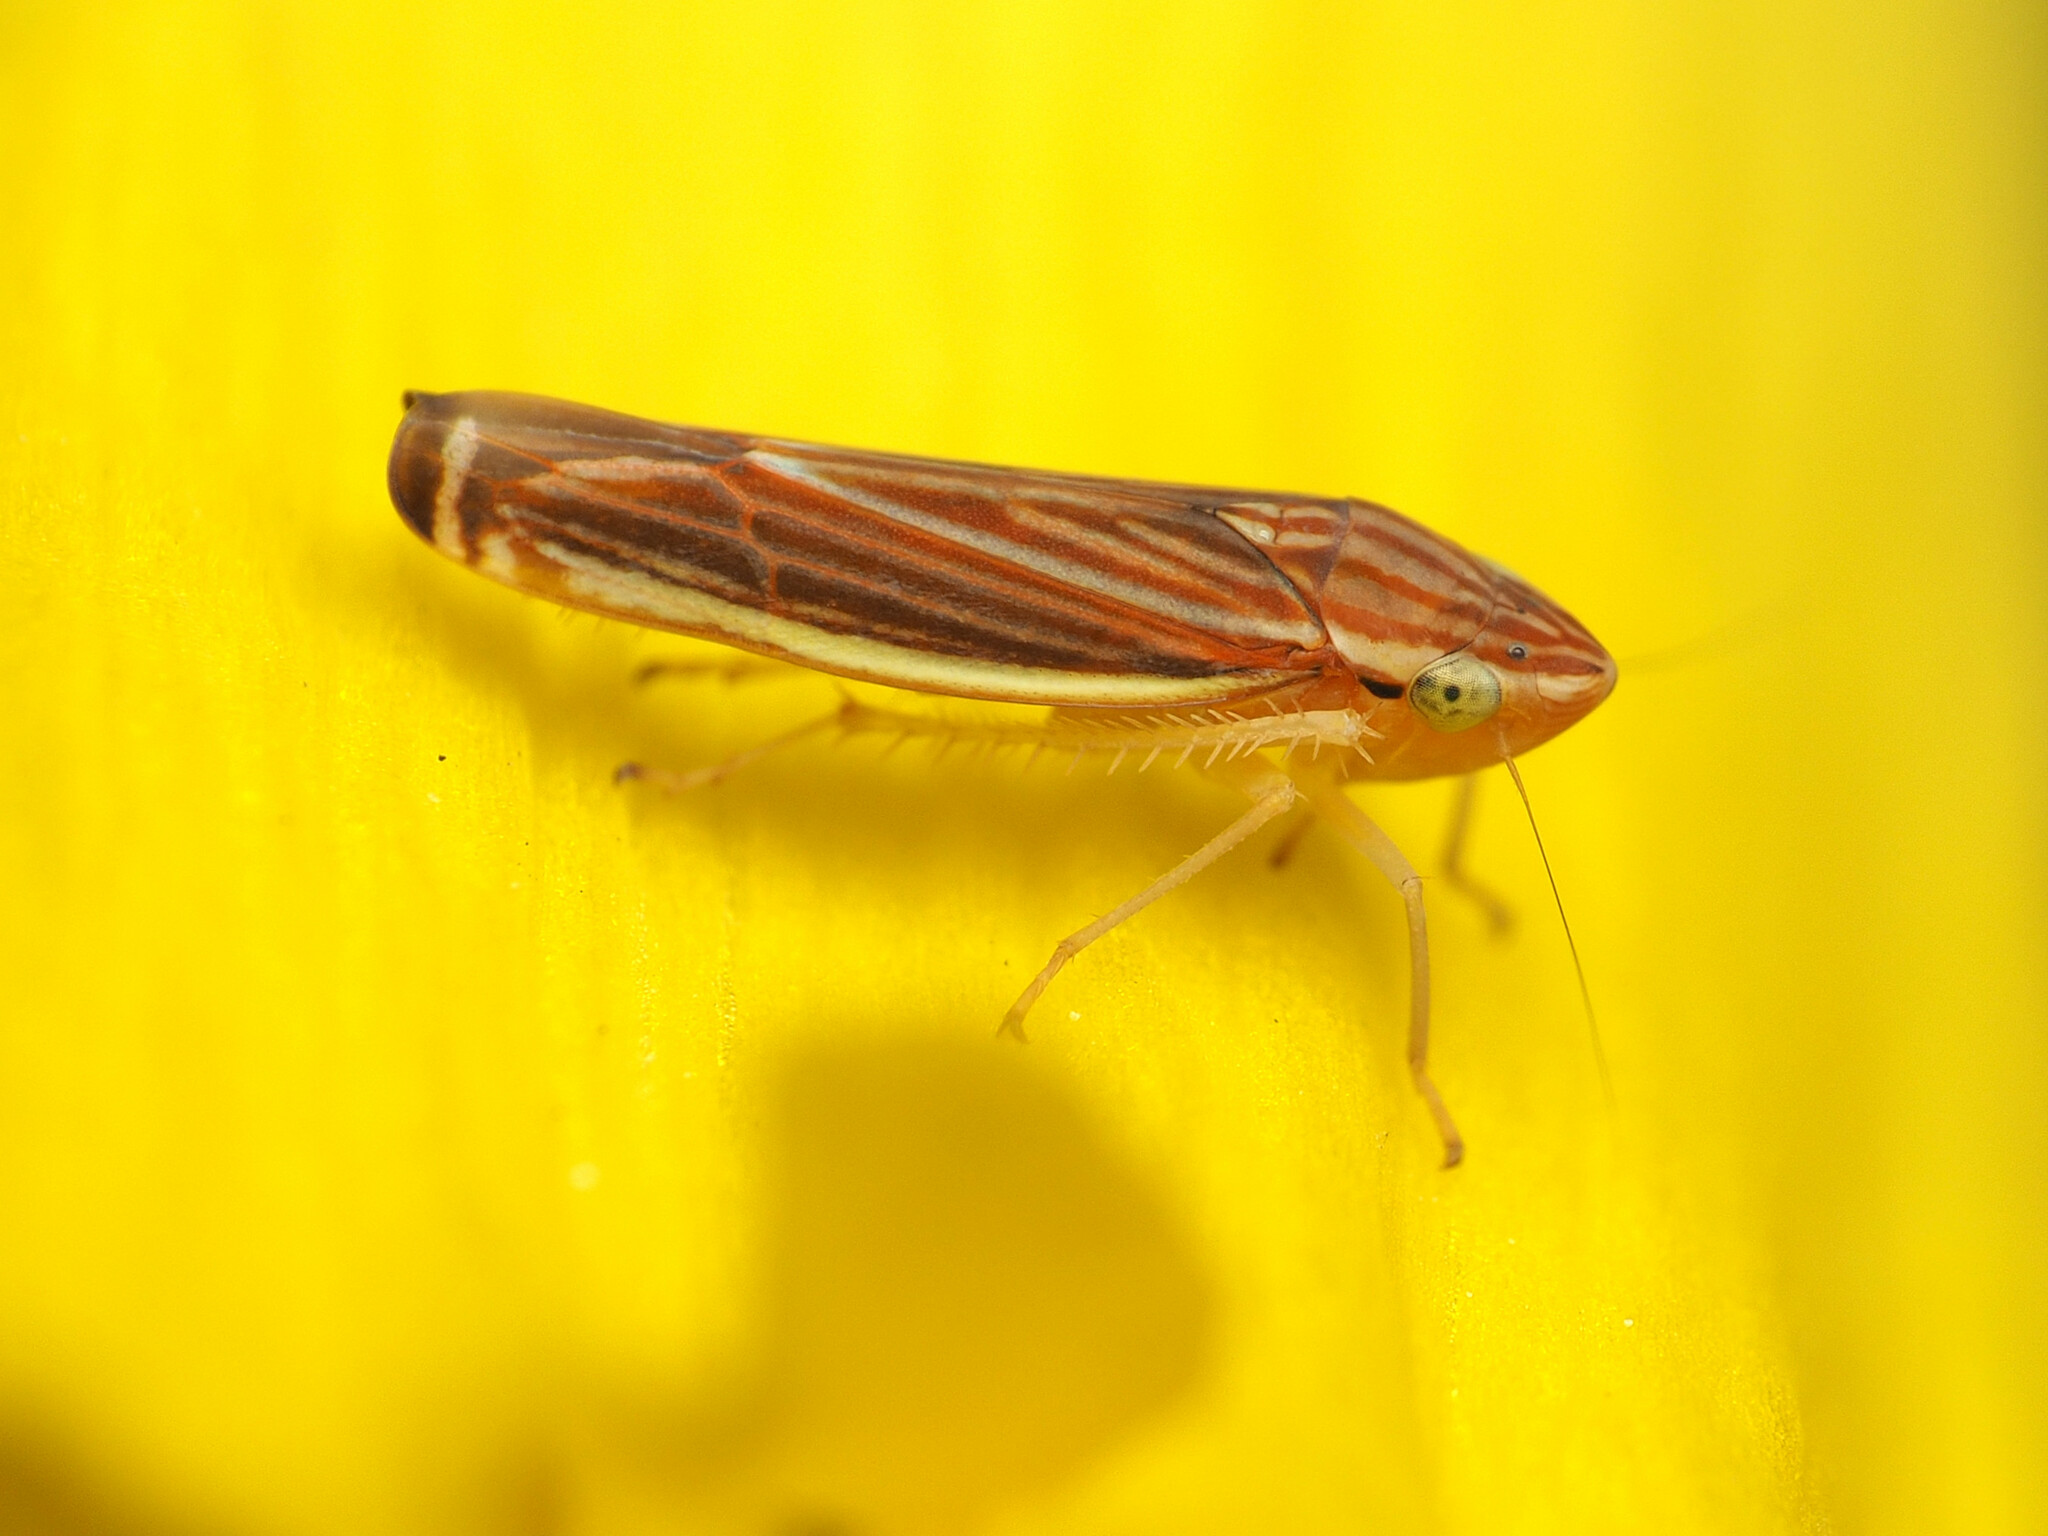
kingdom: Animalia
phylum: Arthropoda
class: Insecta
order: Hemiptera
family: Cicadellidae
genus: Sibovia
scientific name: Sibovia occatoria
